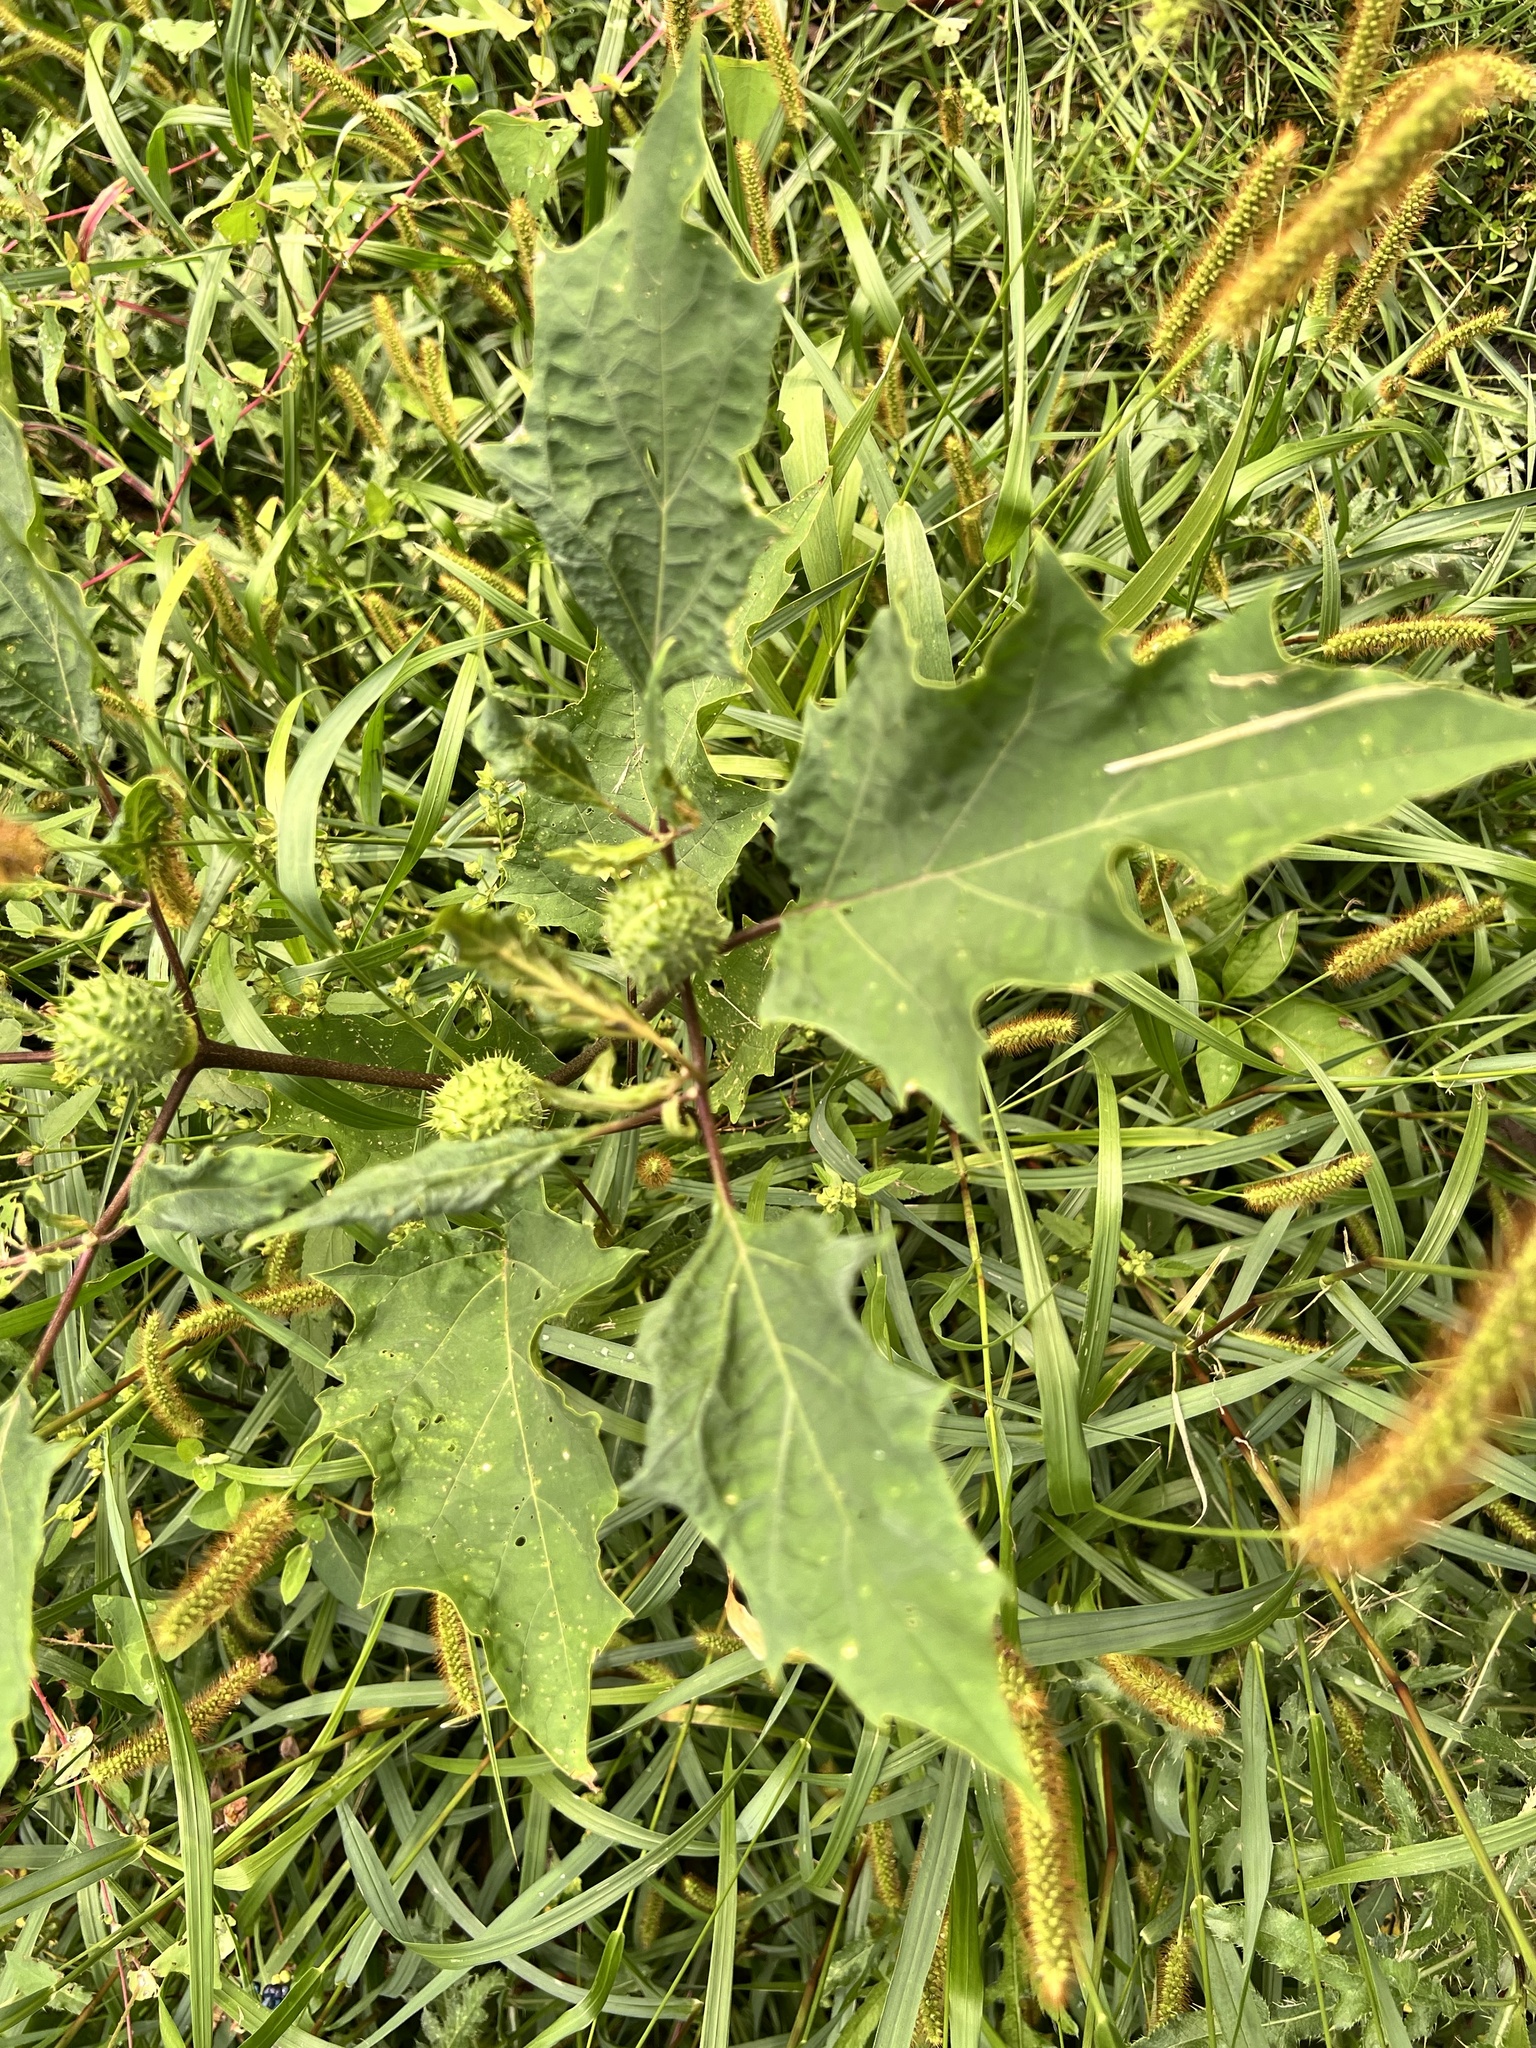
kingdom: Plantae
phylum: Tracheophyta
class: Magnoliopsida
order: Solanales
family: Solanaceae
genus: Datura
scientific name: Datura stramonium
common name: Thorn-apple
